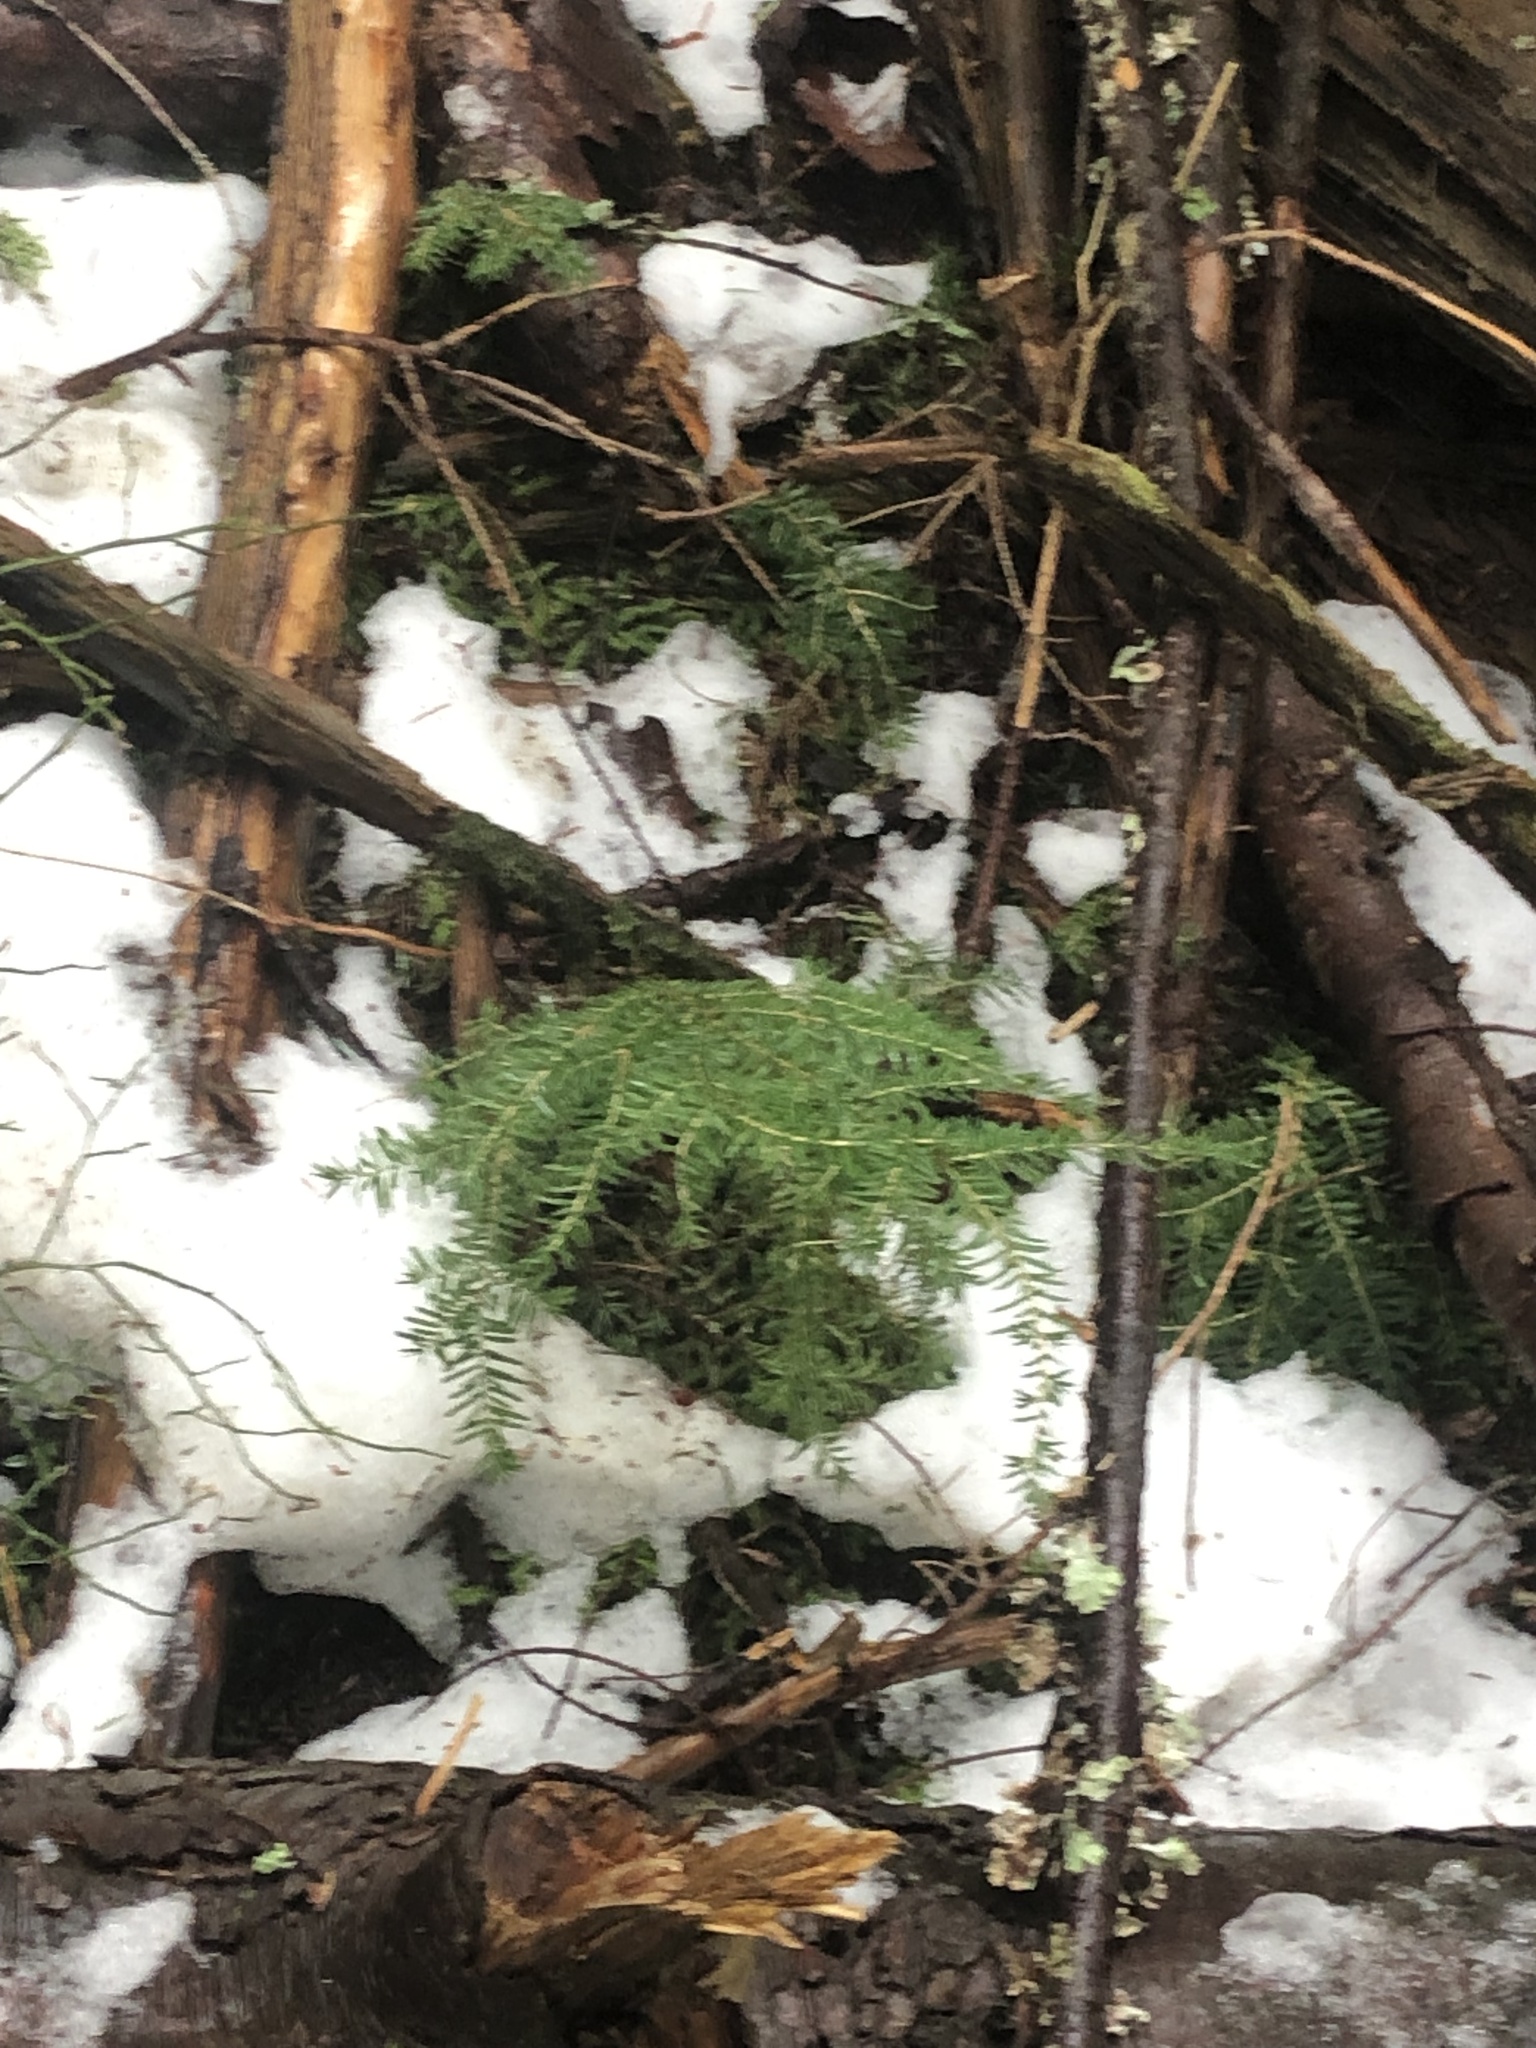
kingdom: Plantae
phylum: Tracheophyta
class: Pinopsida
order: Pinales
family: Pinaceae
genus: Tsuga
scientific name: Tsuga heterophylla
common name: Western hemlock
